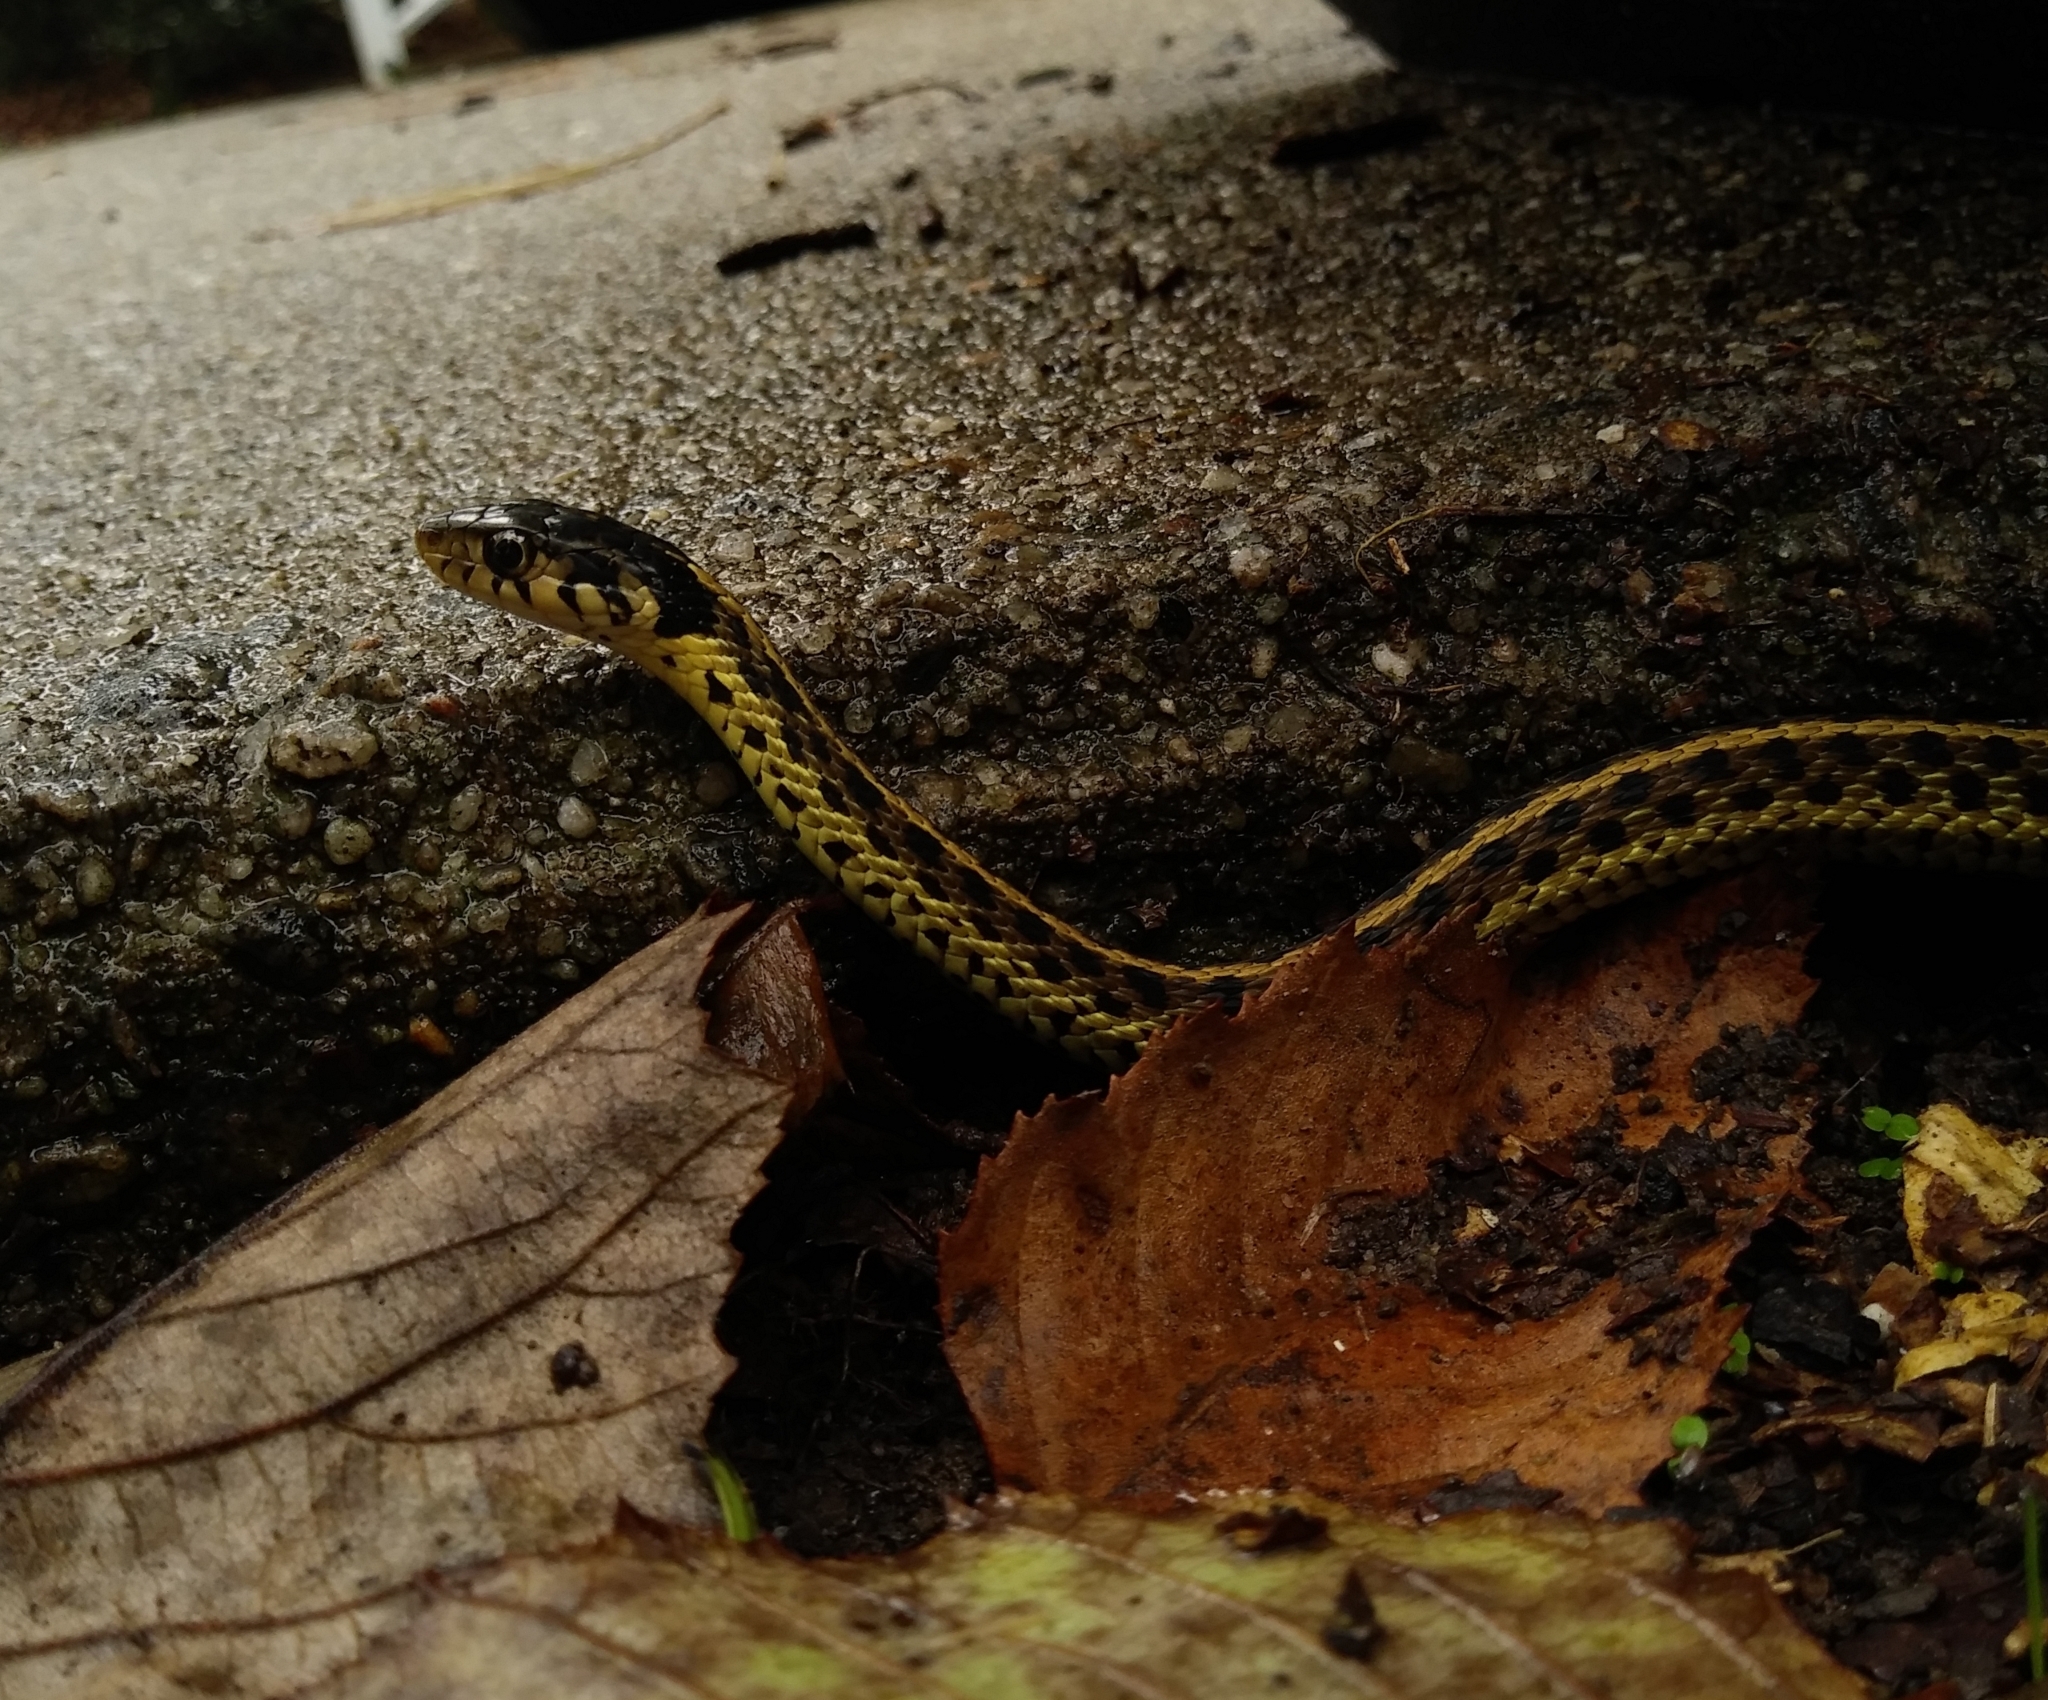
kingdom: Animalia
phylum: Chordata
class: Squamata
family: Colubridae
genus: Thamnophis
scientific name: Thamnophis sirtalis
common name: Common garter snake
